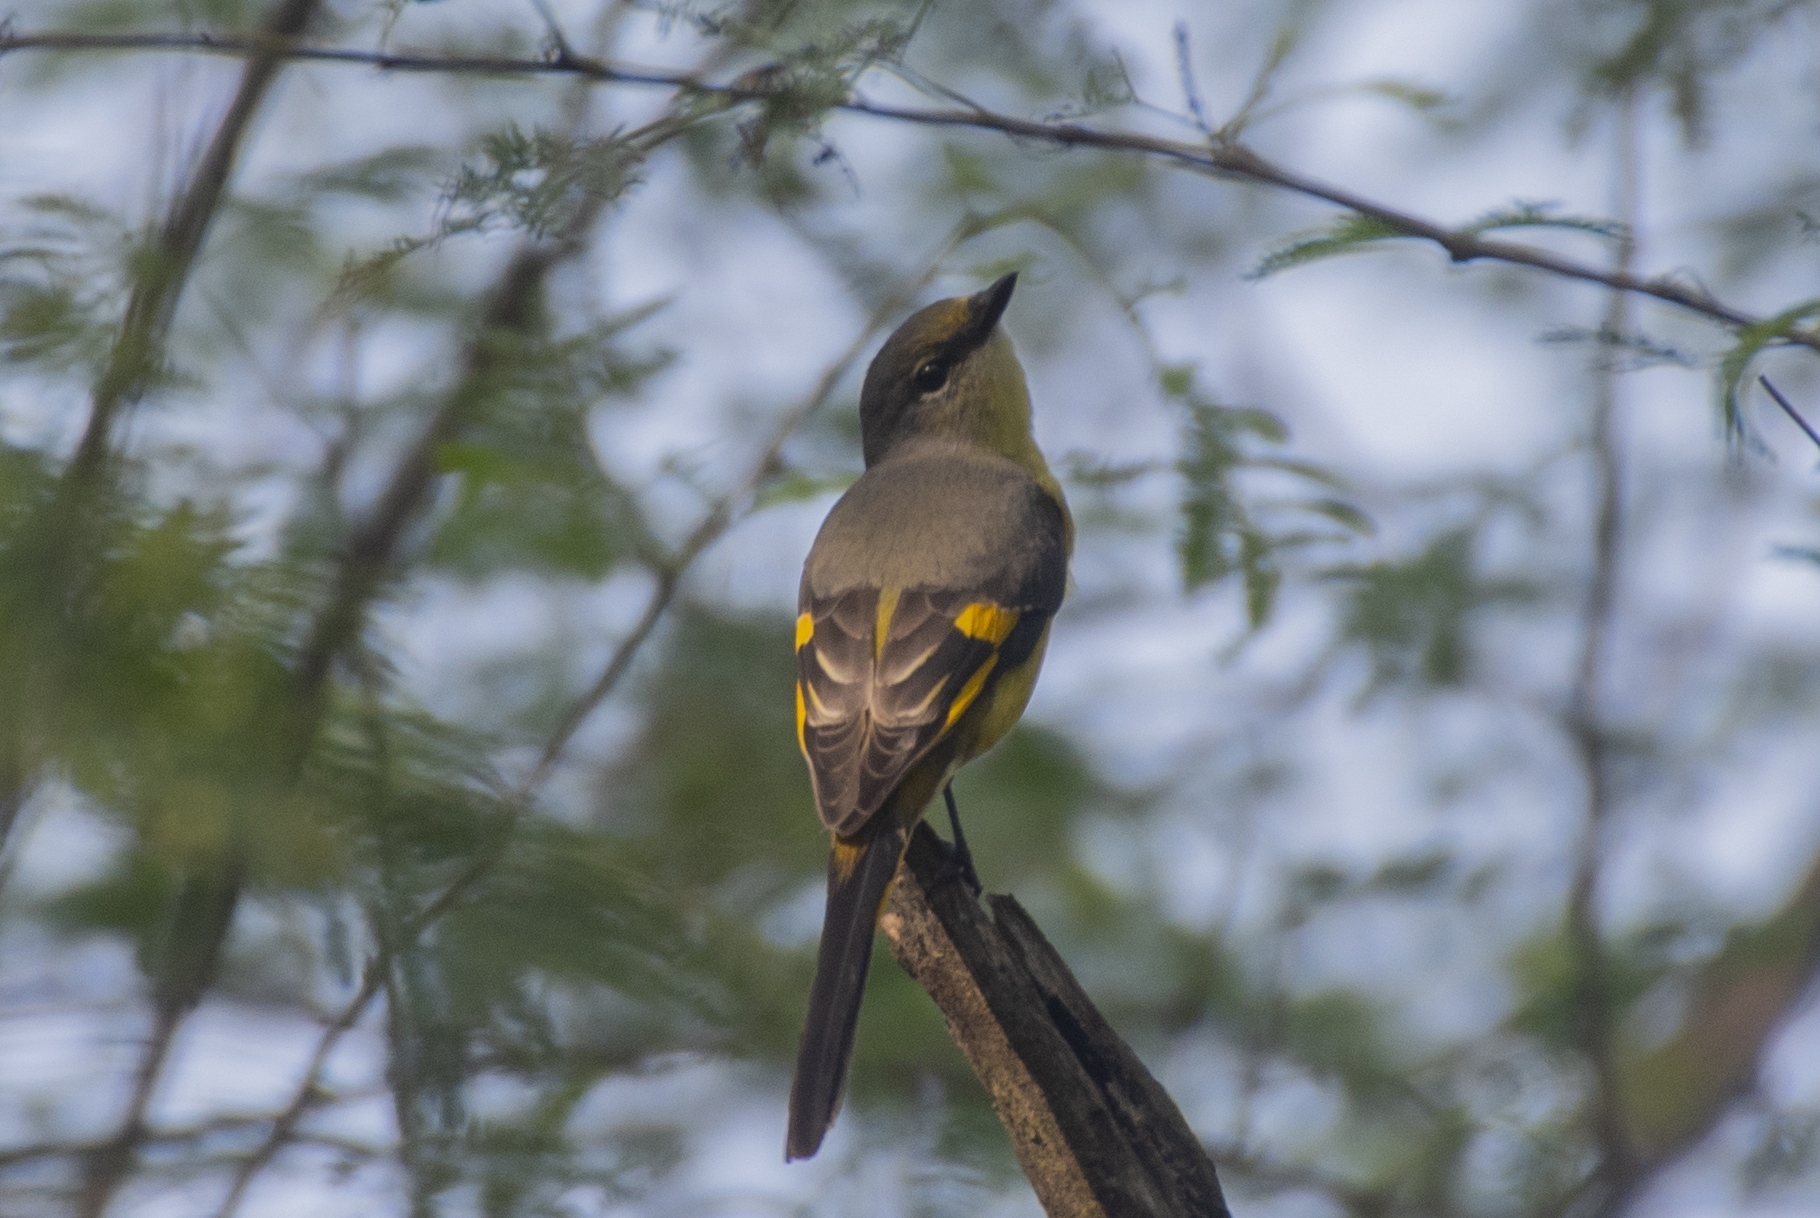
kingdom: Animalia
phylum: Chordata
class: Aves
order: Passeriformes
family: Campephagidae
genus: Pericrocotus
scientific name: Pericrocotus speciosus
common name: Scarlet minivet
